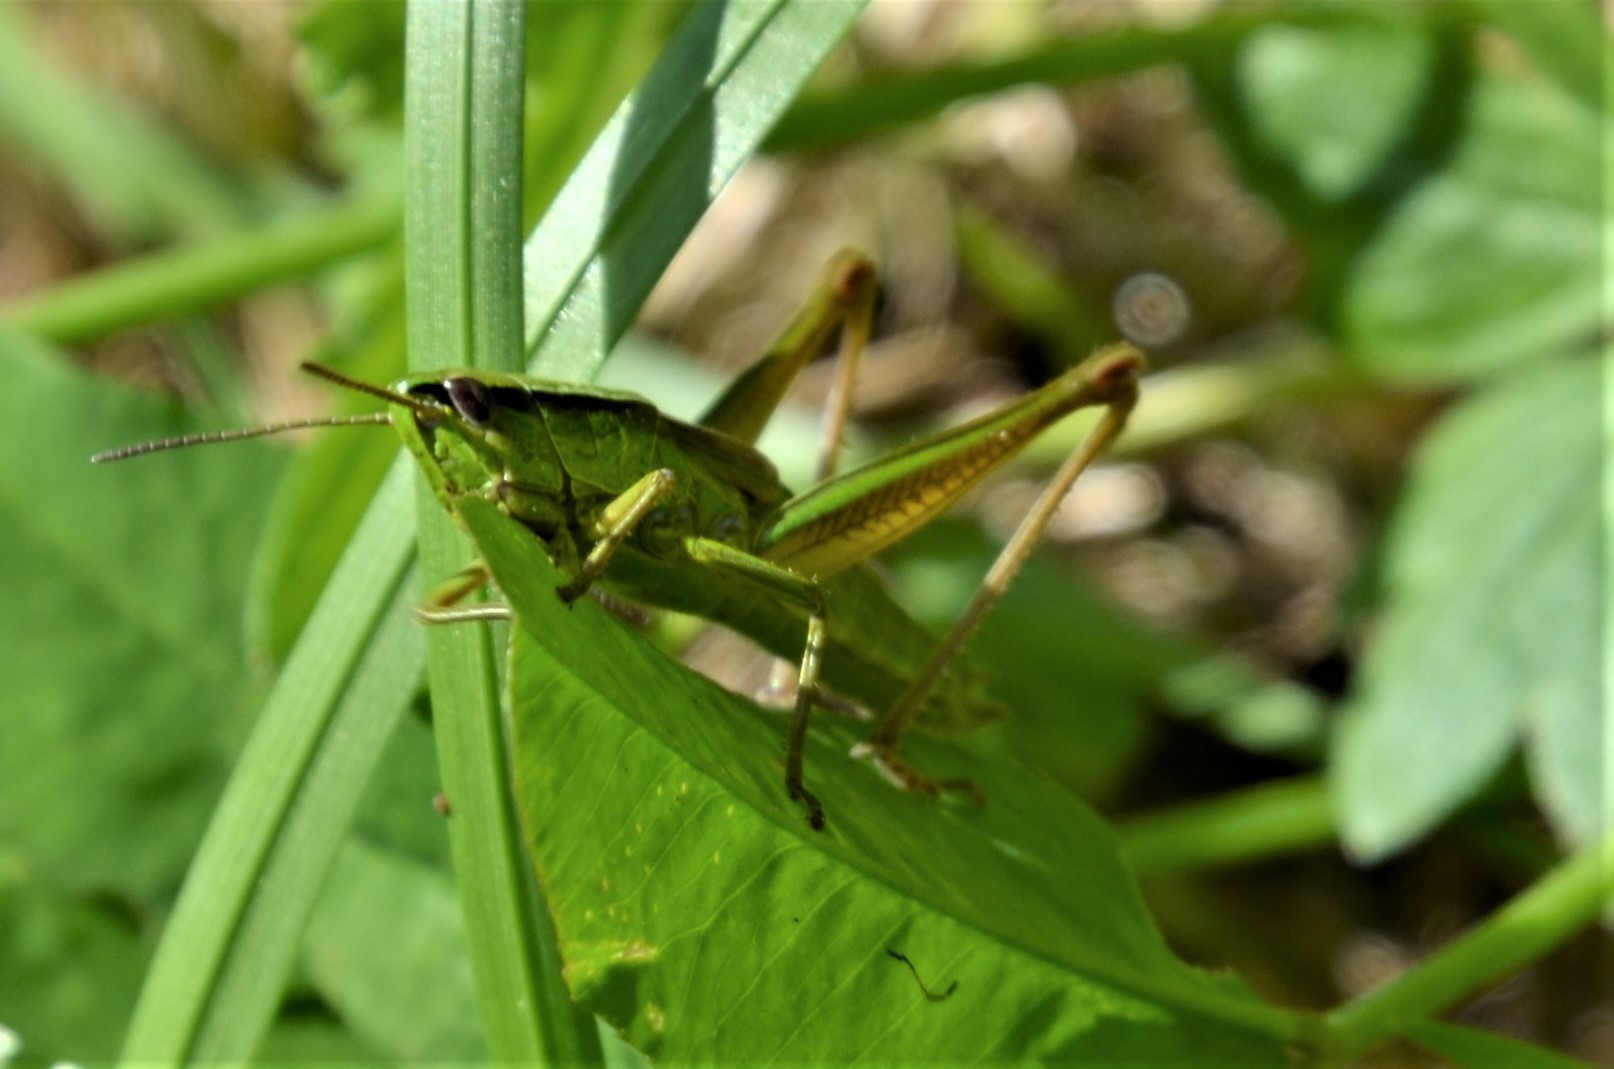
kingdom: Animalia
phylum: Arthropoda
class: Insecta
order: Orthoptera
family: Acrididae
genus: Euthystira
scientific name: Euthystira brachyptera
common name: Small gold grasshopper
